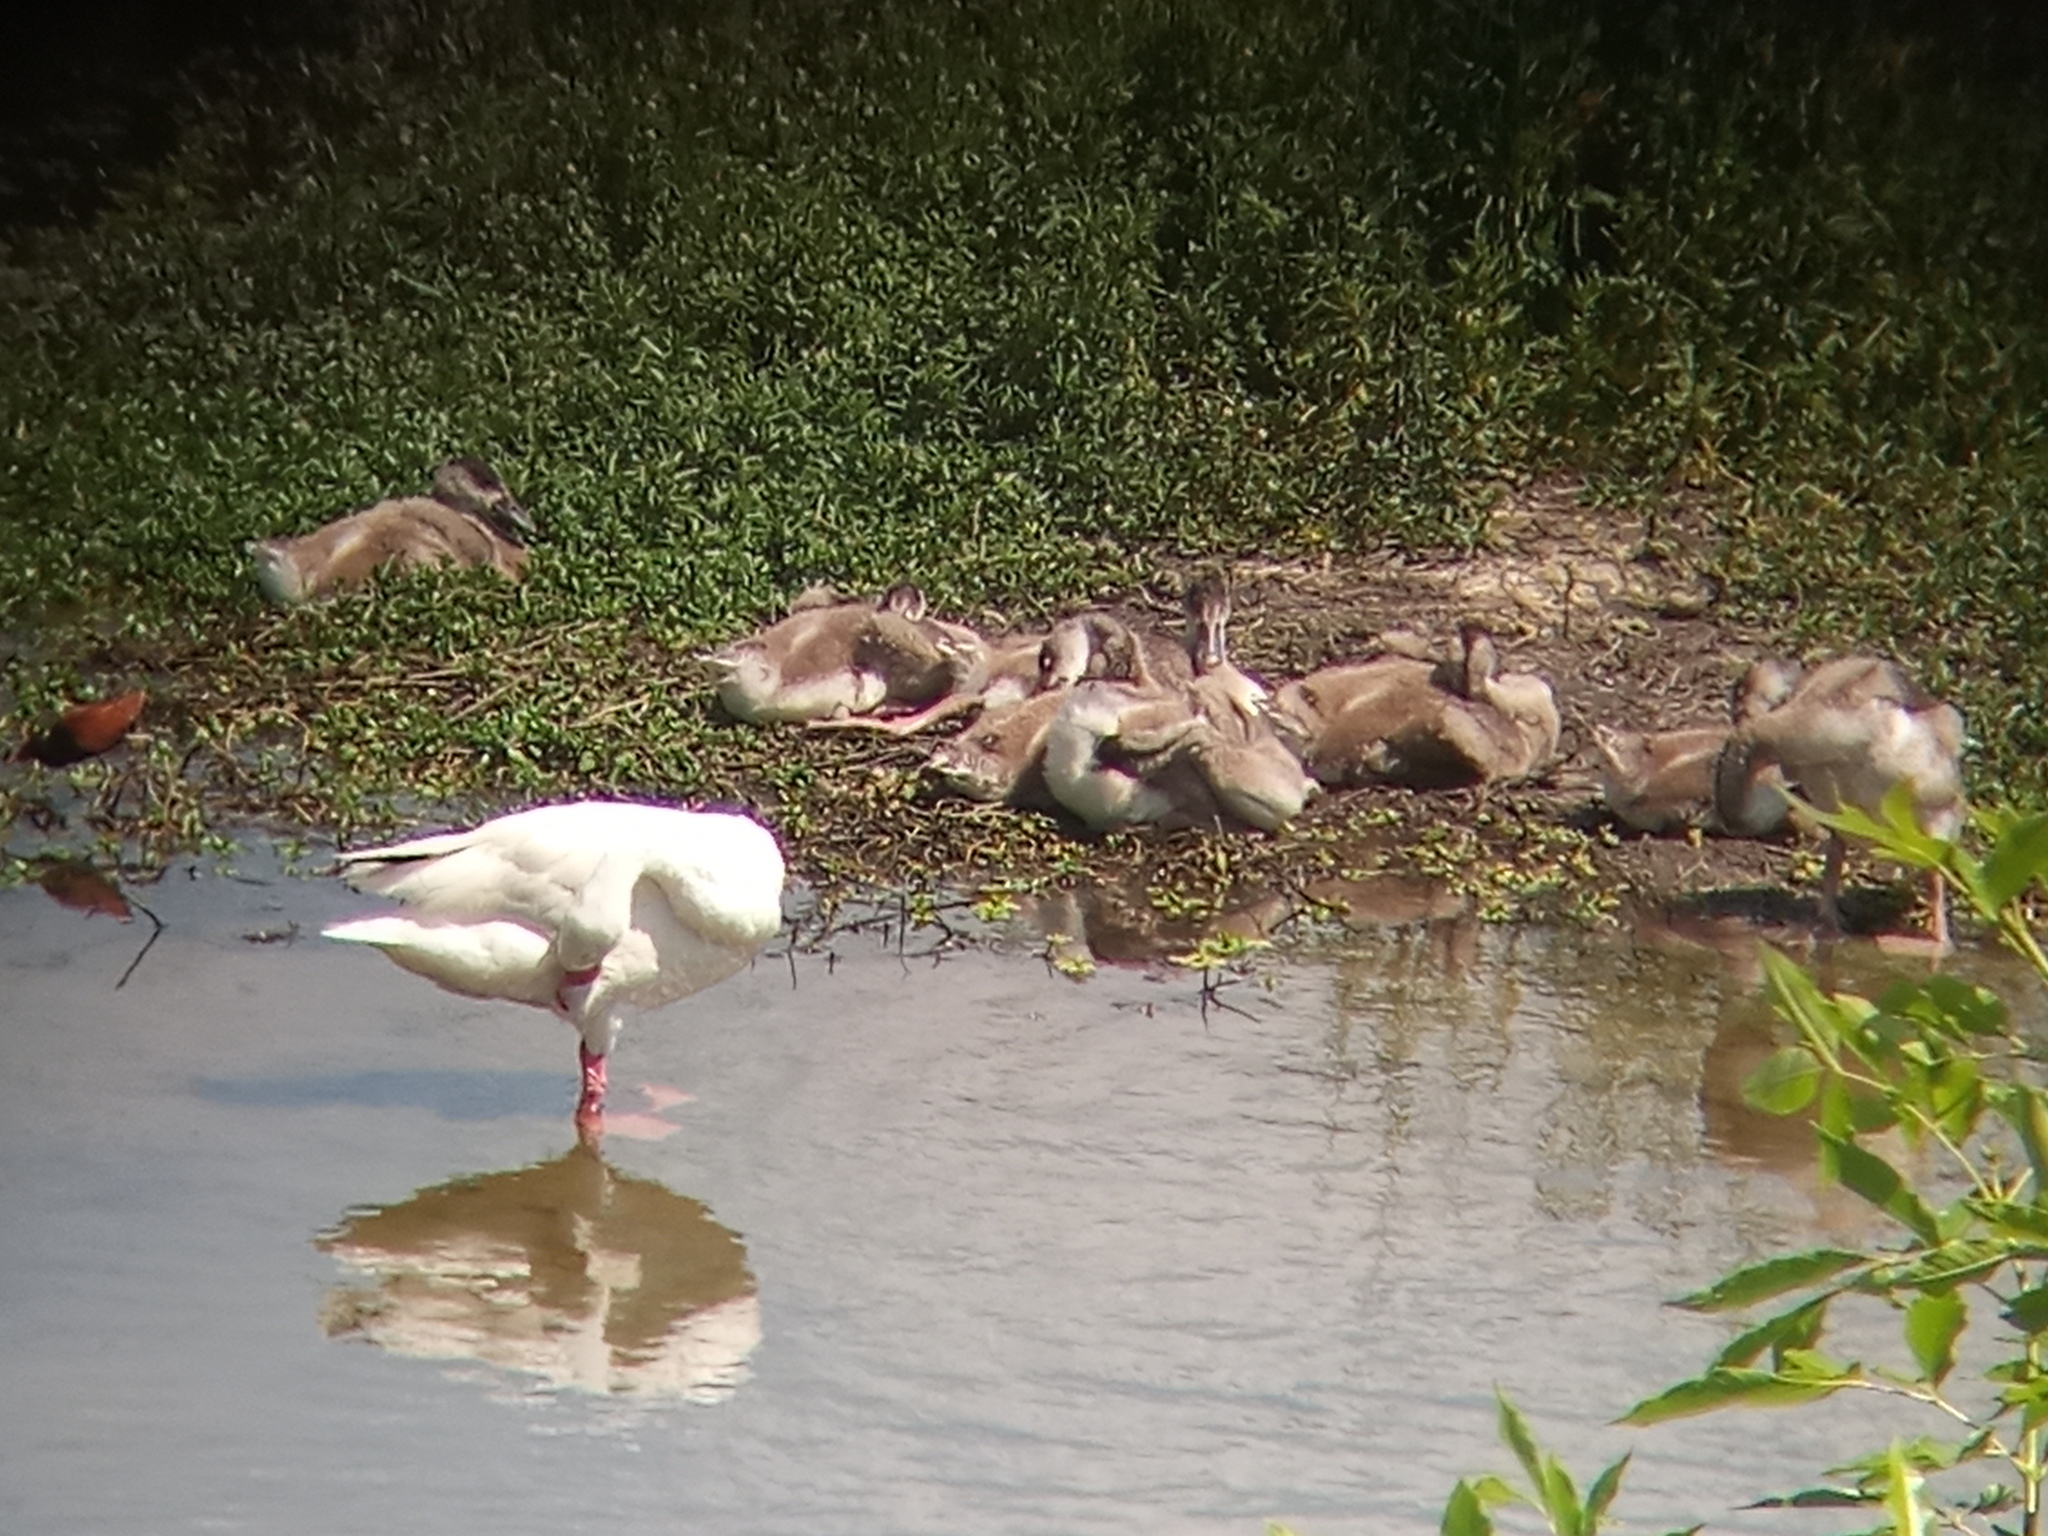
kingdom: Animalia
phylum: Chordata
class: Aves
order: Anseriformes
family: Anatidae
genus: Coscoroba
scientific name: Coscoroba coscoroba
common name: Coscoroba swan
